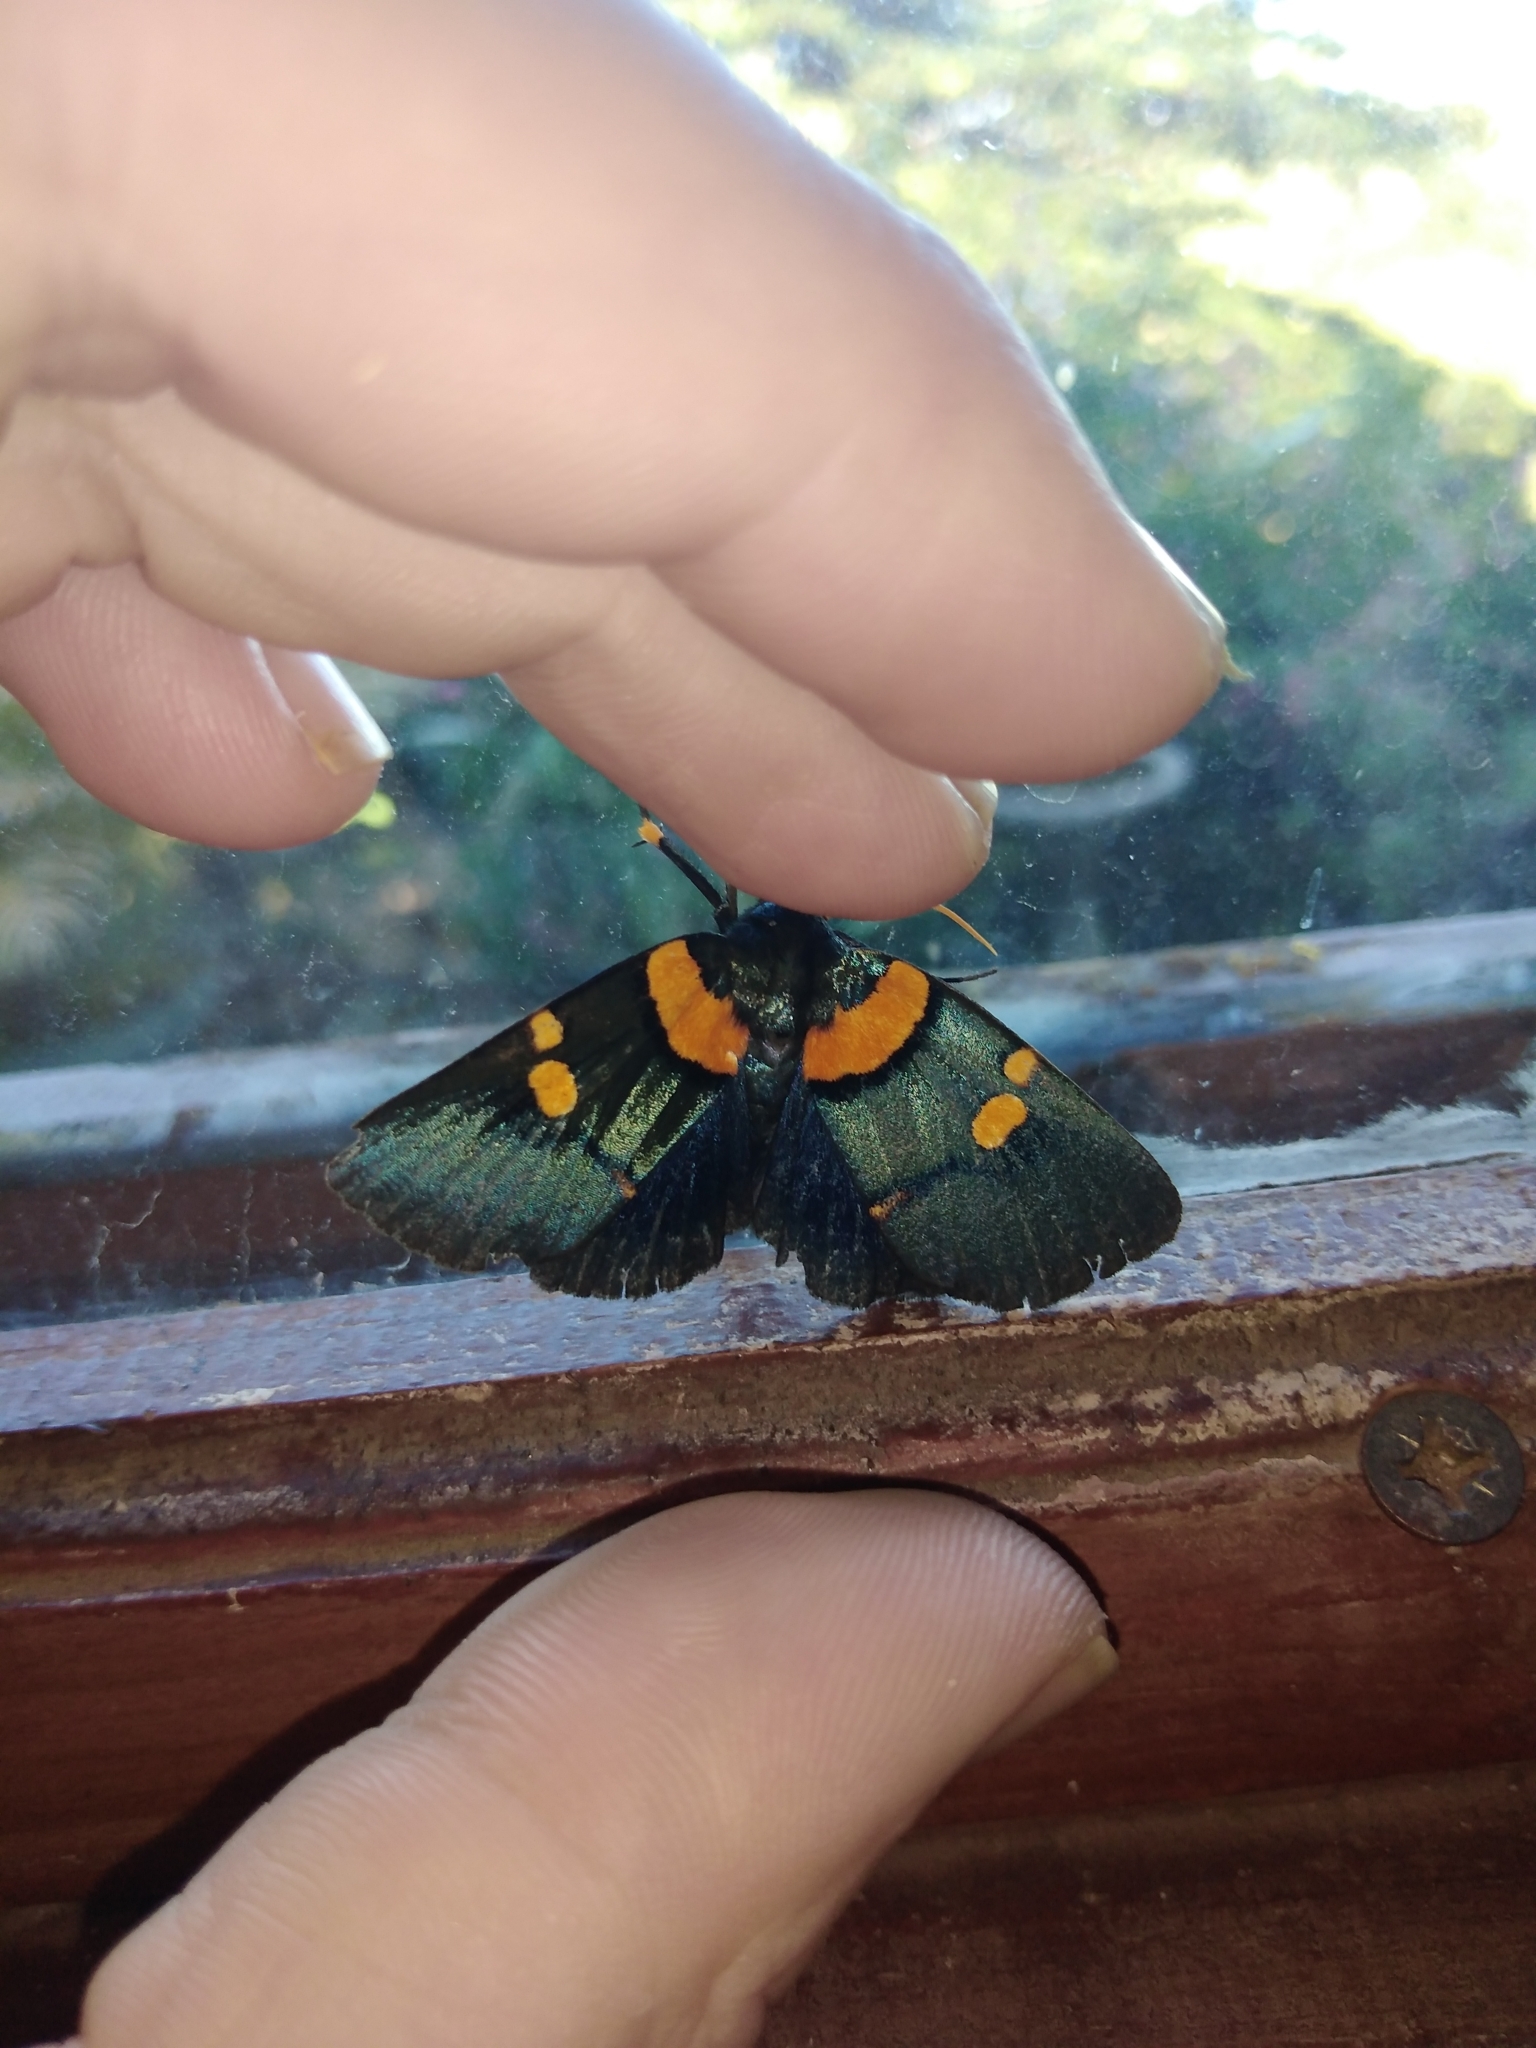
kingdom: Animalia
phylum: Arthropoda
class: Insecta
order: Lepidoptera
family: Erebidae
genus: Egybolis
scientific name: Egybolis vaillantina
